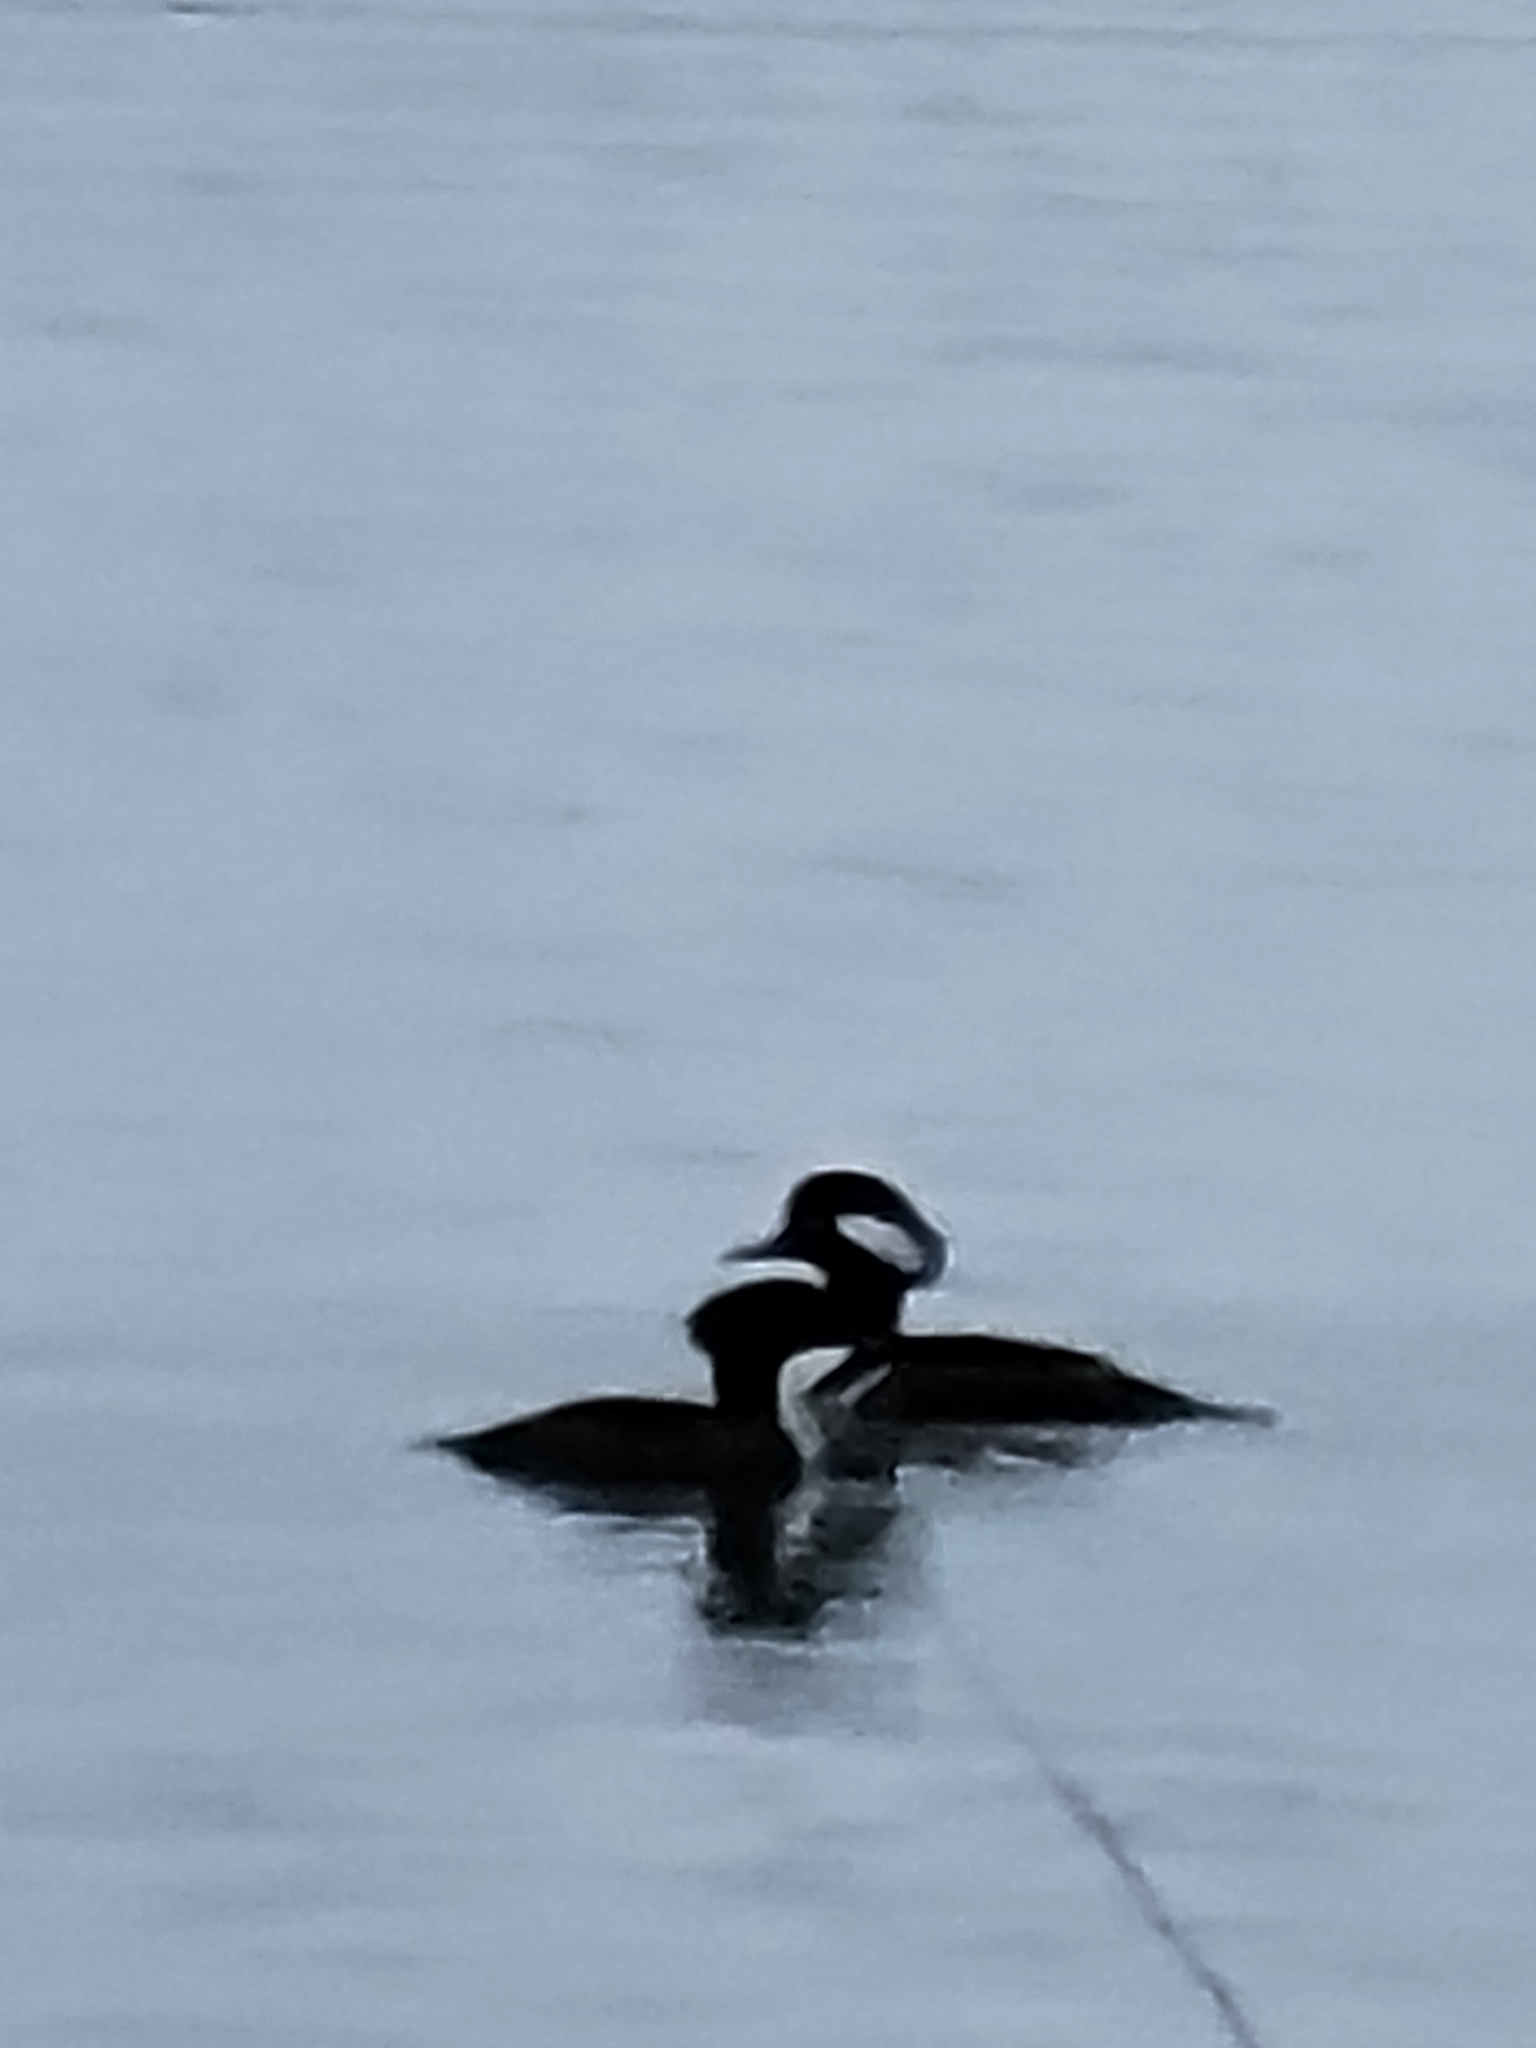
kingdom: Animalia
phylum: Chordata
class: Aves
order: Anseriformes
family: Anatidae
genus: Lophodytes
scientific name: Lophodytes cucullatus
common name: Hooded merganser
